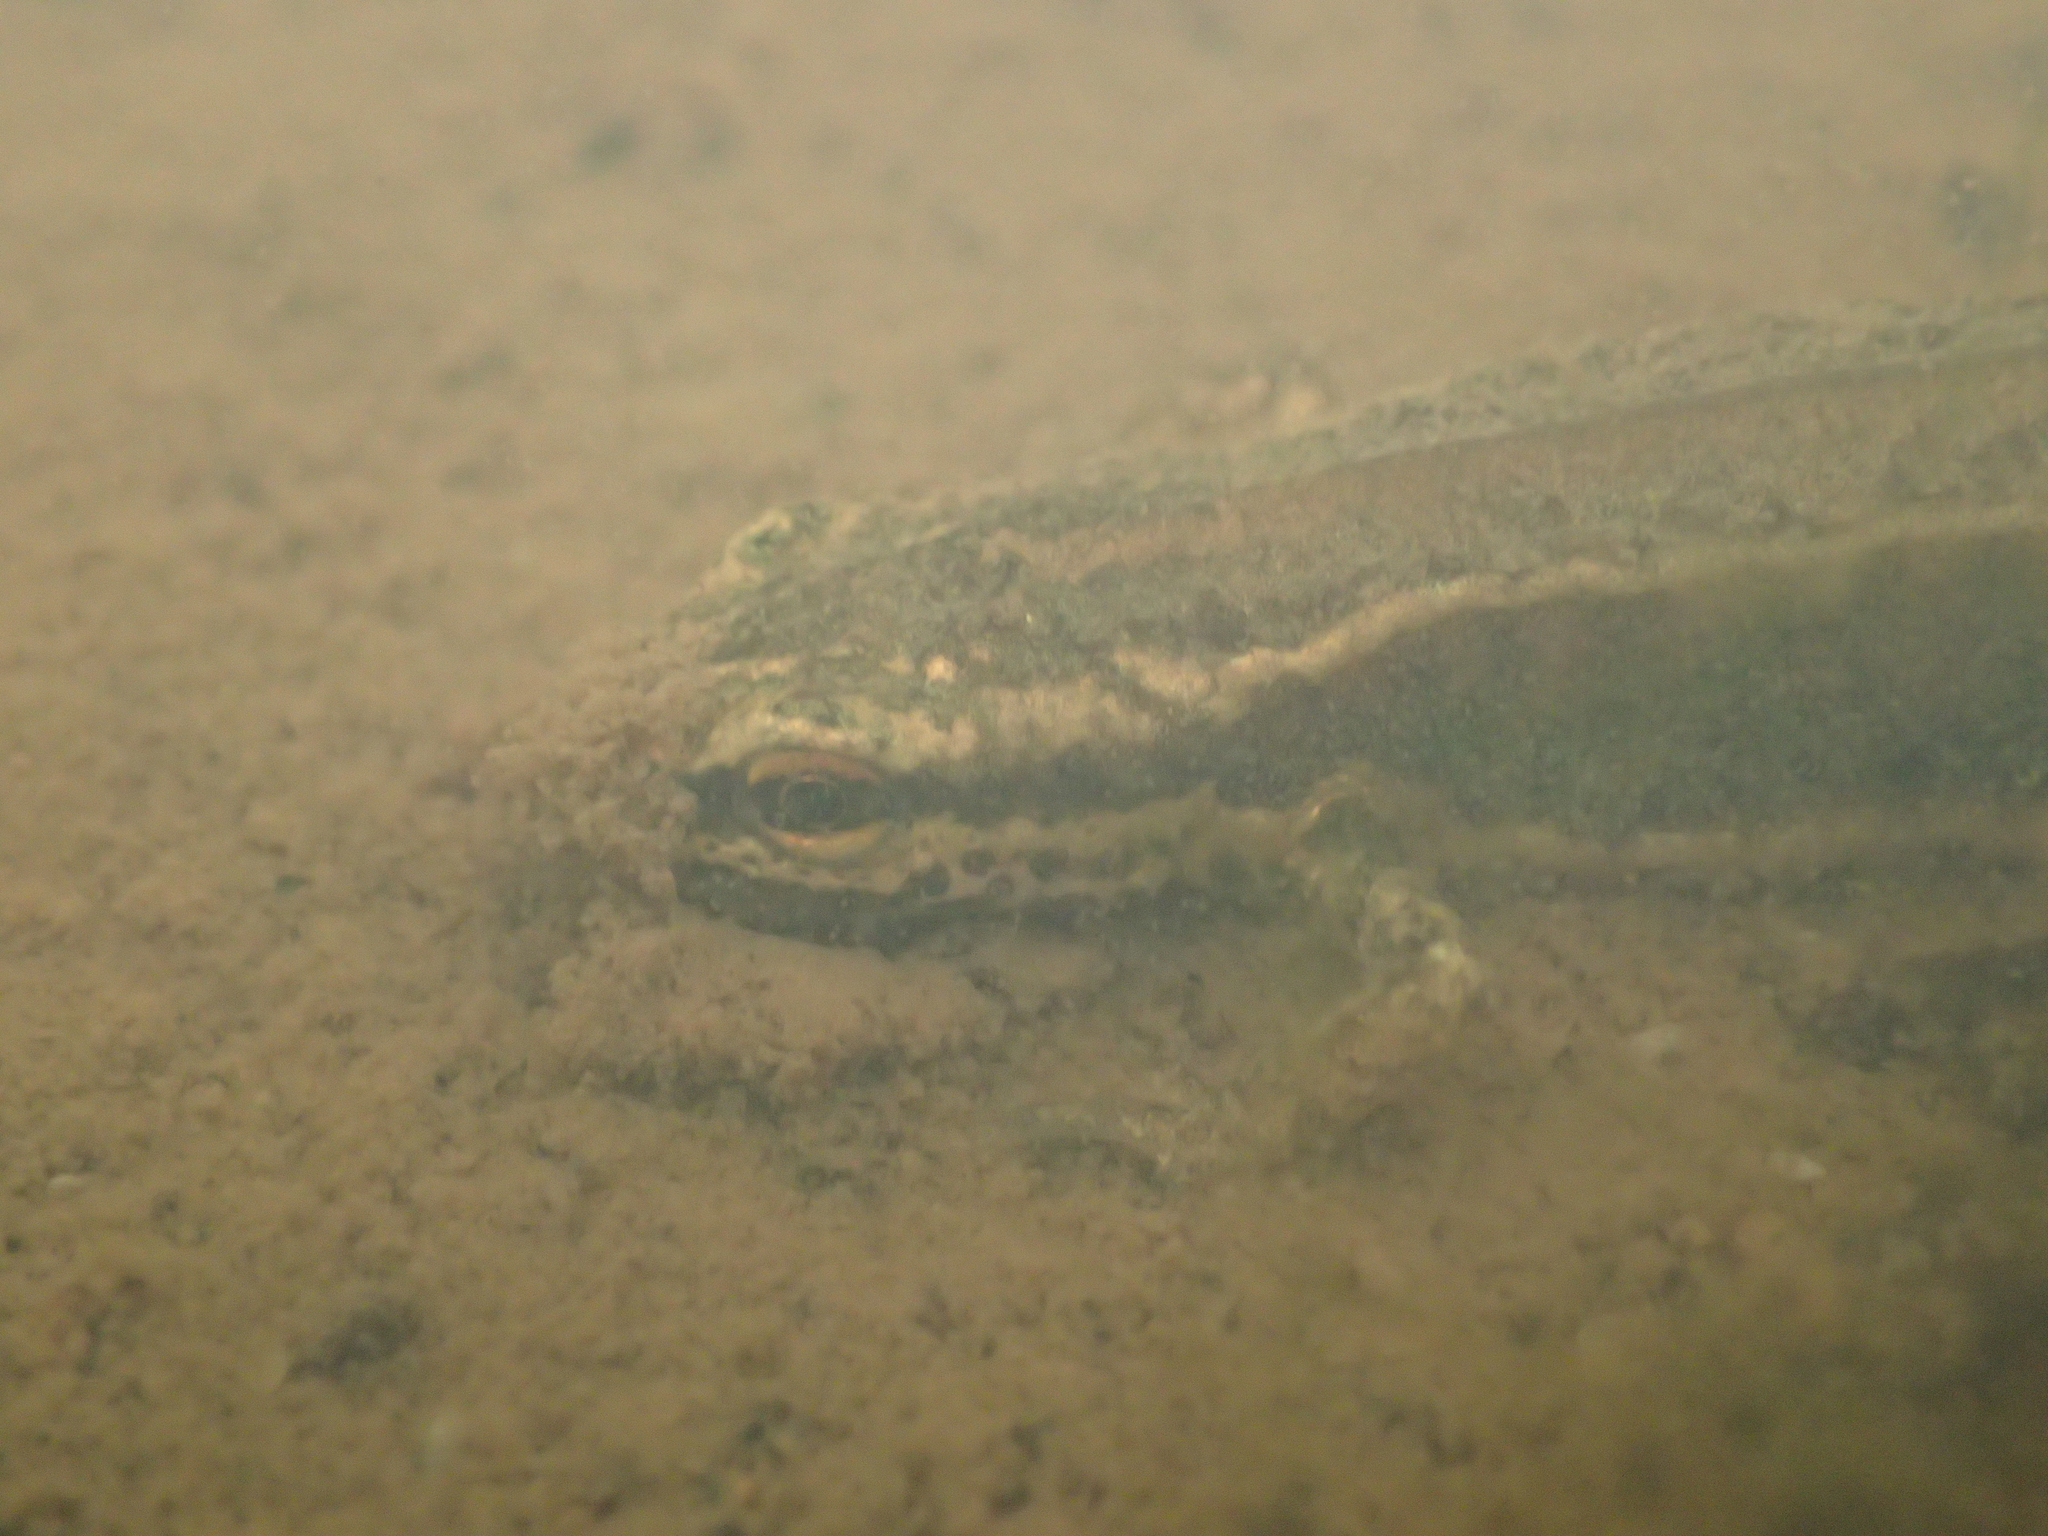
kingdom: Animalia
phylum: Chordata
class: Amphibia
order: Caudata
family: Salamandridae
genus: Lissotriton
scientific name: Lissotriton helveticus
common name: Palmate newt
